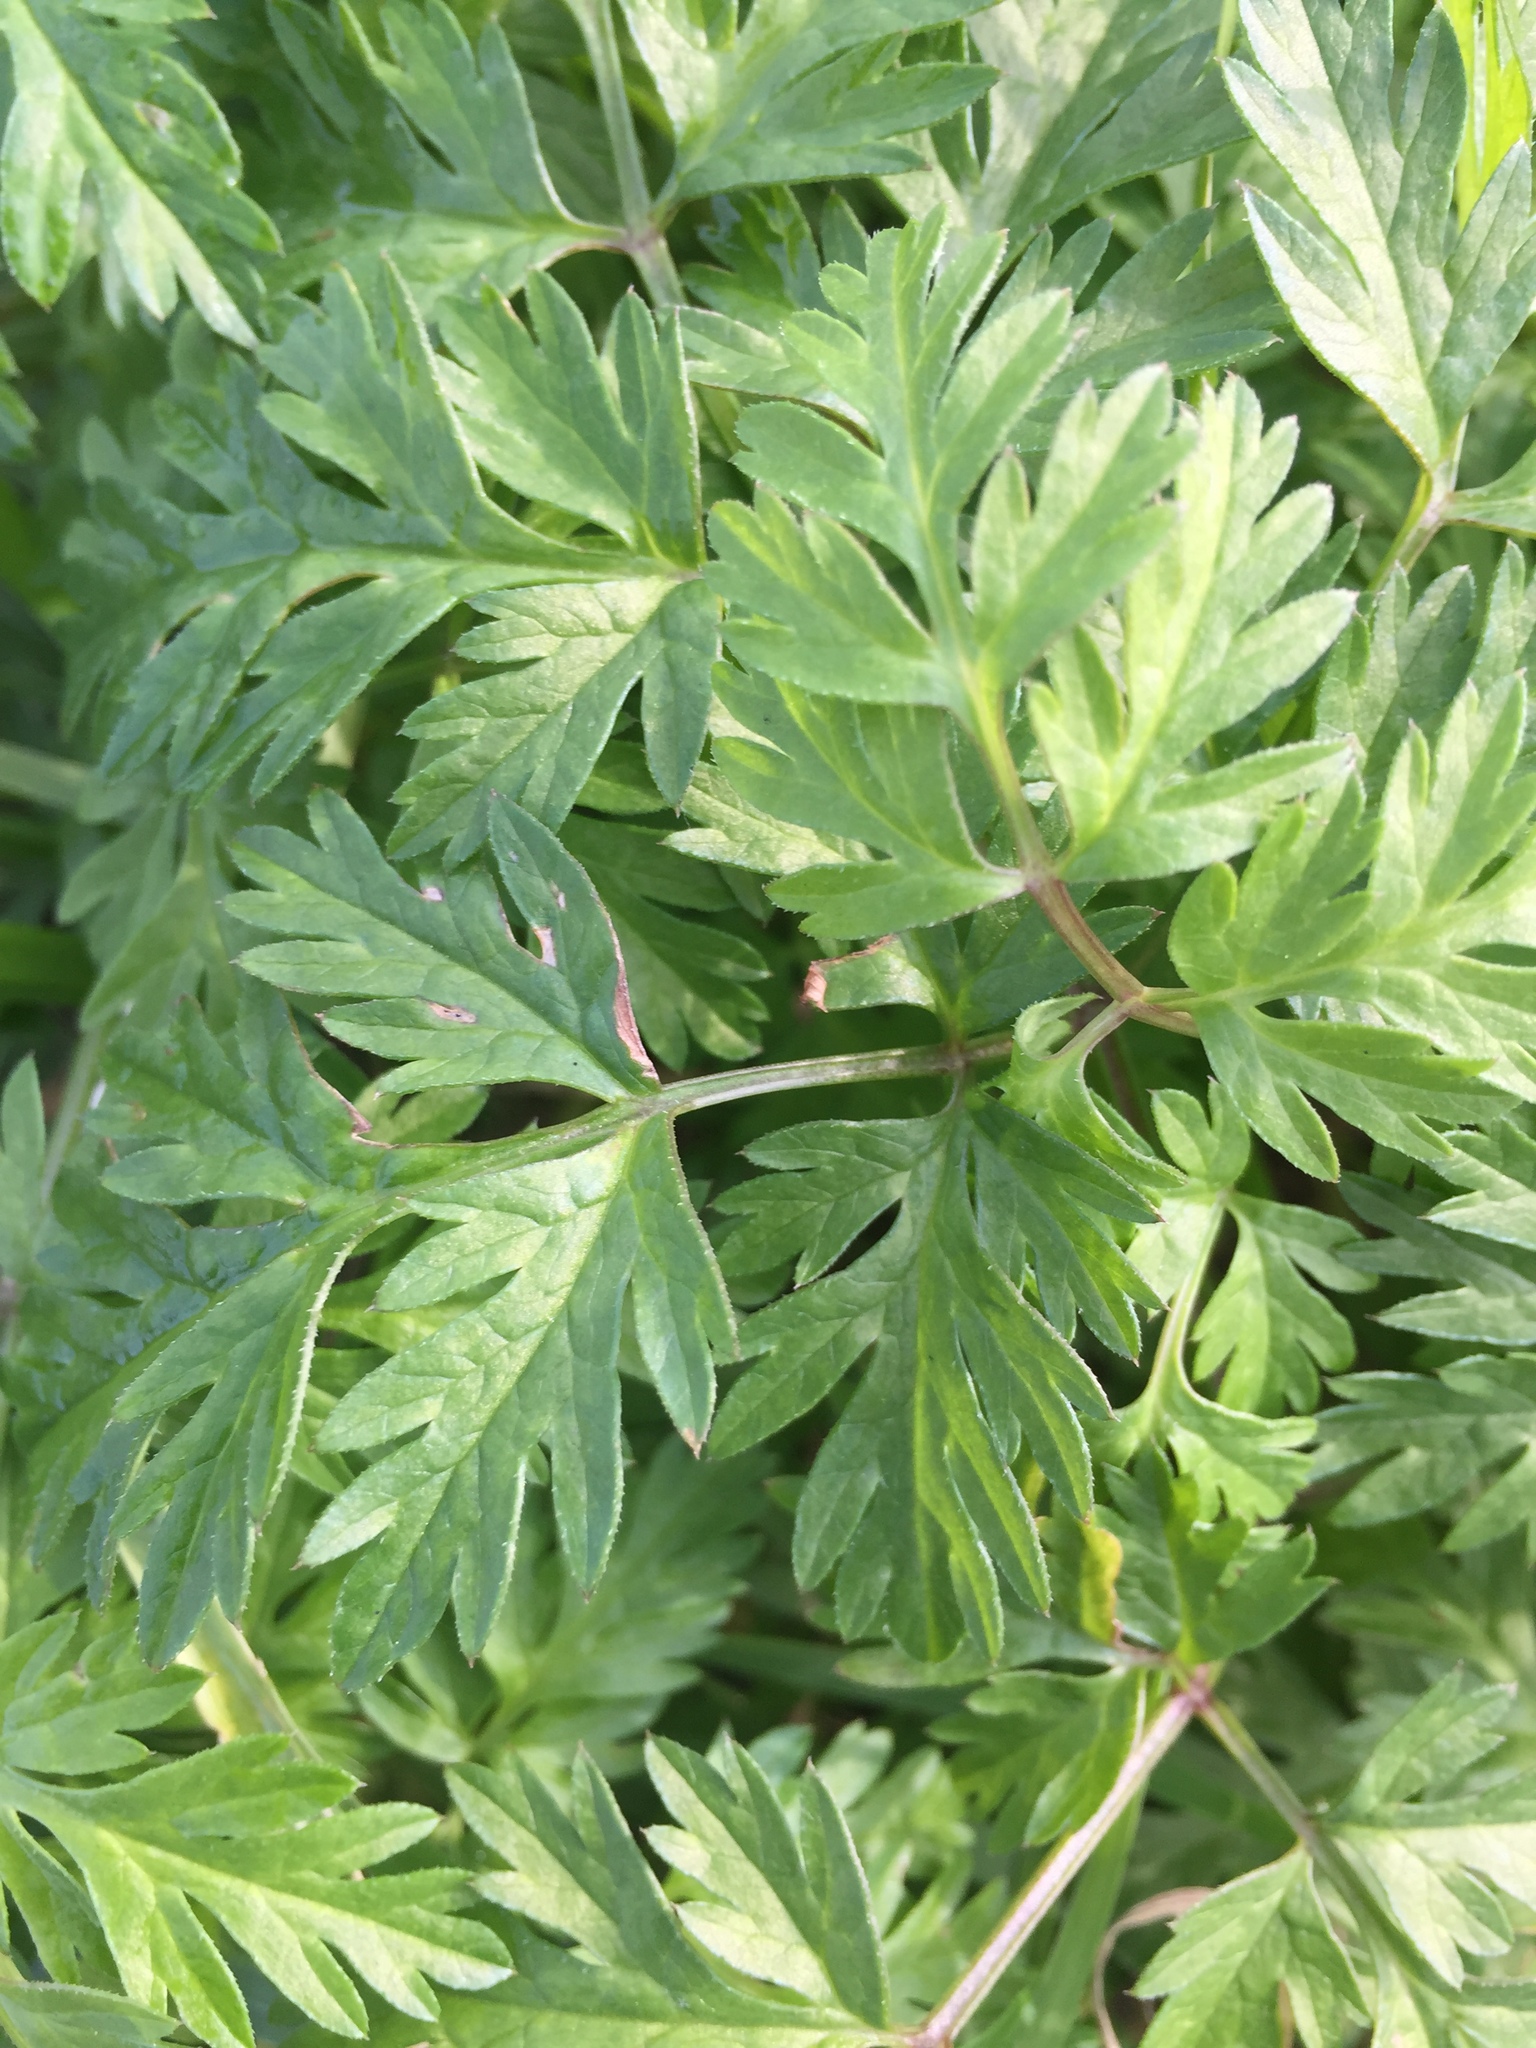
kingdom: Plantae
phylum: Tracheophyta
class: Magnoliopsida
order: Apiales
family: Apiaceae
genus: Anthriscus
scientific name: Anthriscus sylvestris
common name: Cow parsley
